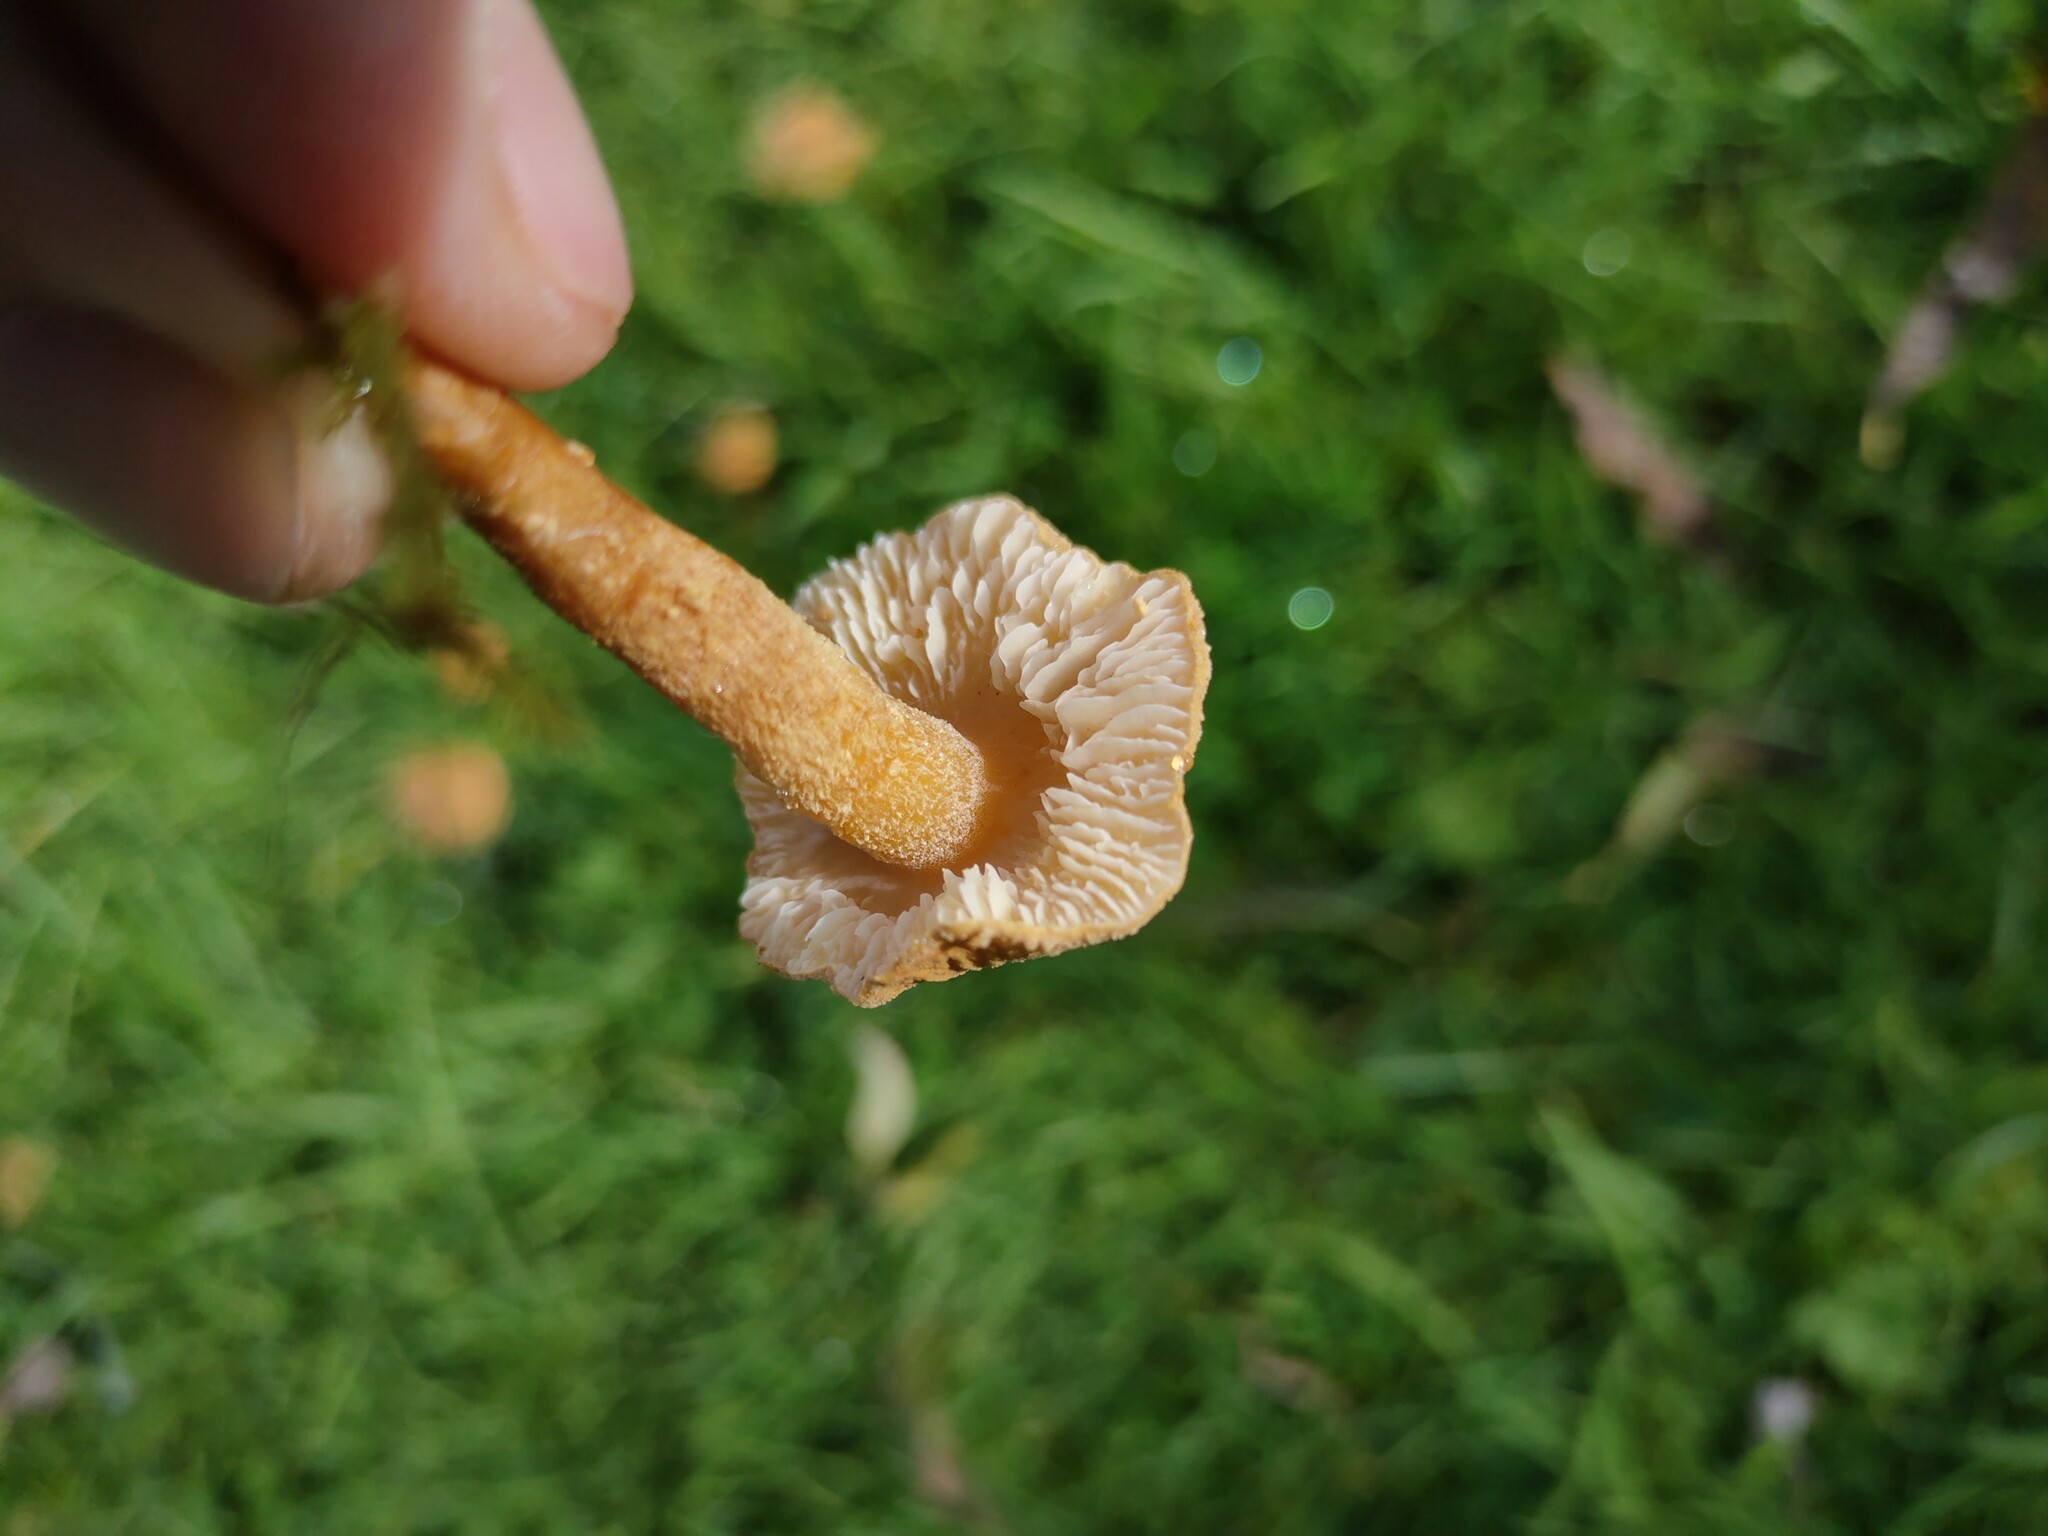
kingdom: Fungi
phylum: Basidiomycota
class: Agaricomycetes
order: Agaricales
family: Tricholomataceae
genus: Cystoderma
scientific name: Cystoderma amianthinum
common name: Earthy powdercap
